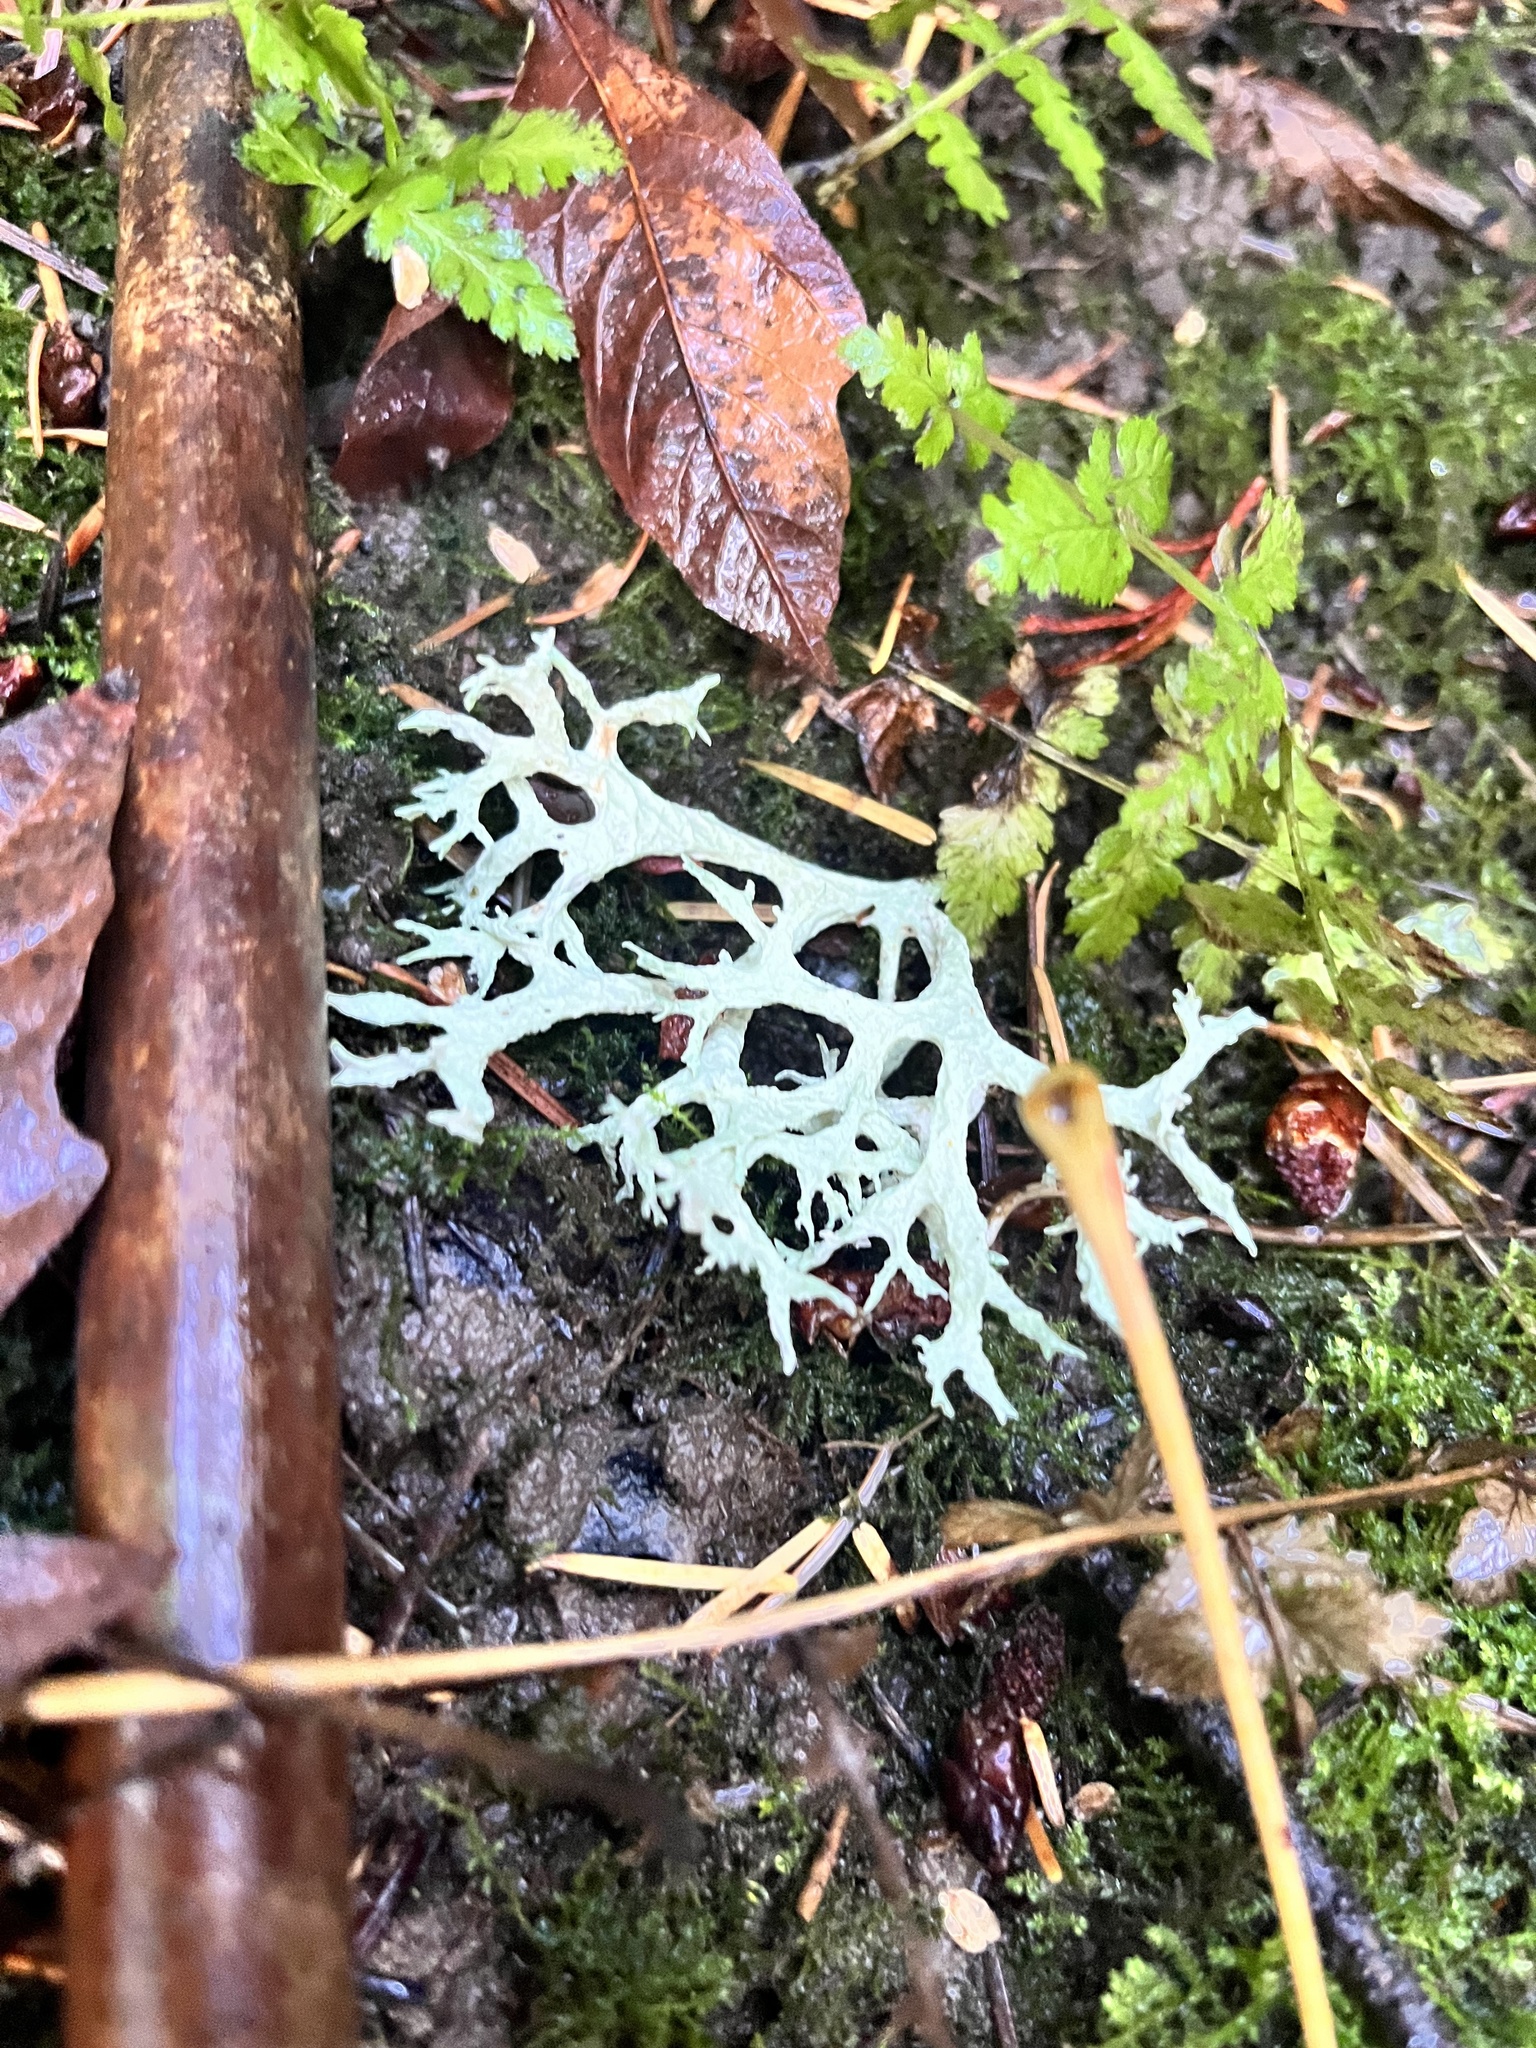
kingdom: Fungi
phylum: Ascomycota
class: Lecanoromycetes
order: Lecanorales
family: Parmeliaceae
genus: Evernia
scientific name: Evernia prunastri
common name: Oak moss
